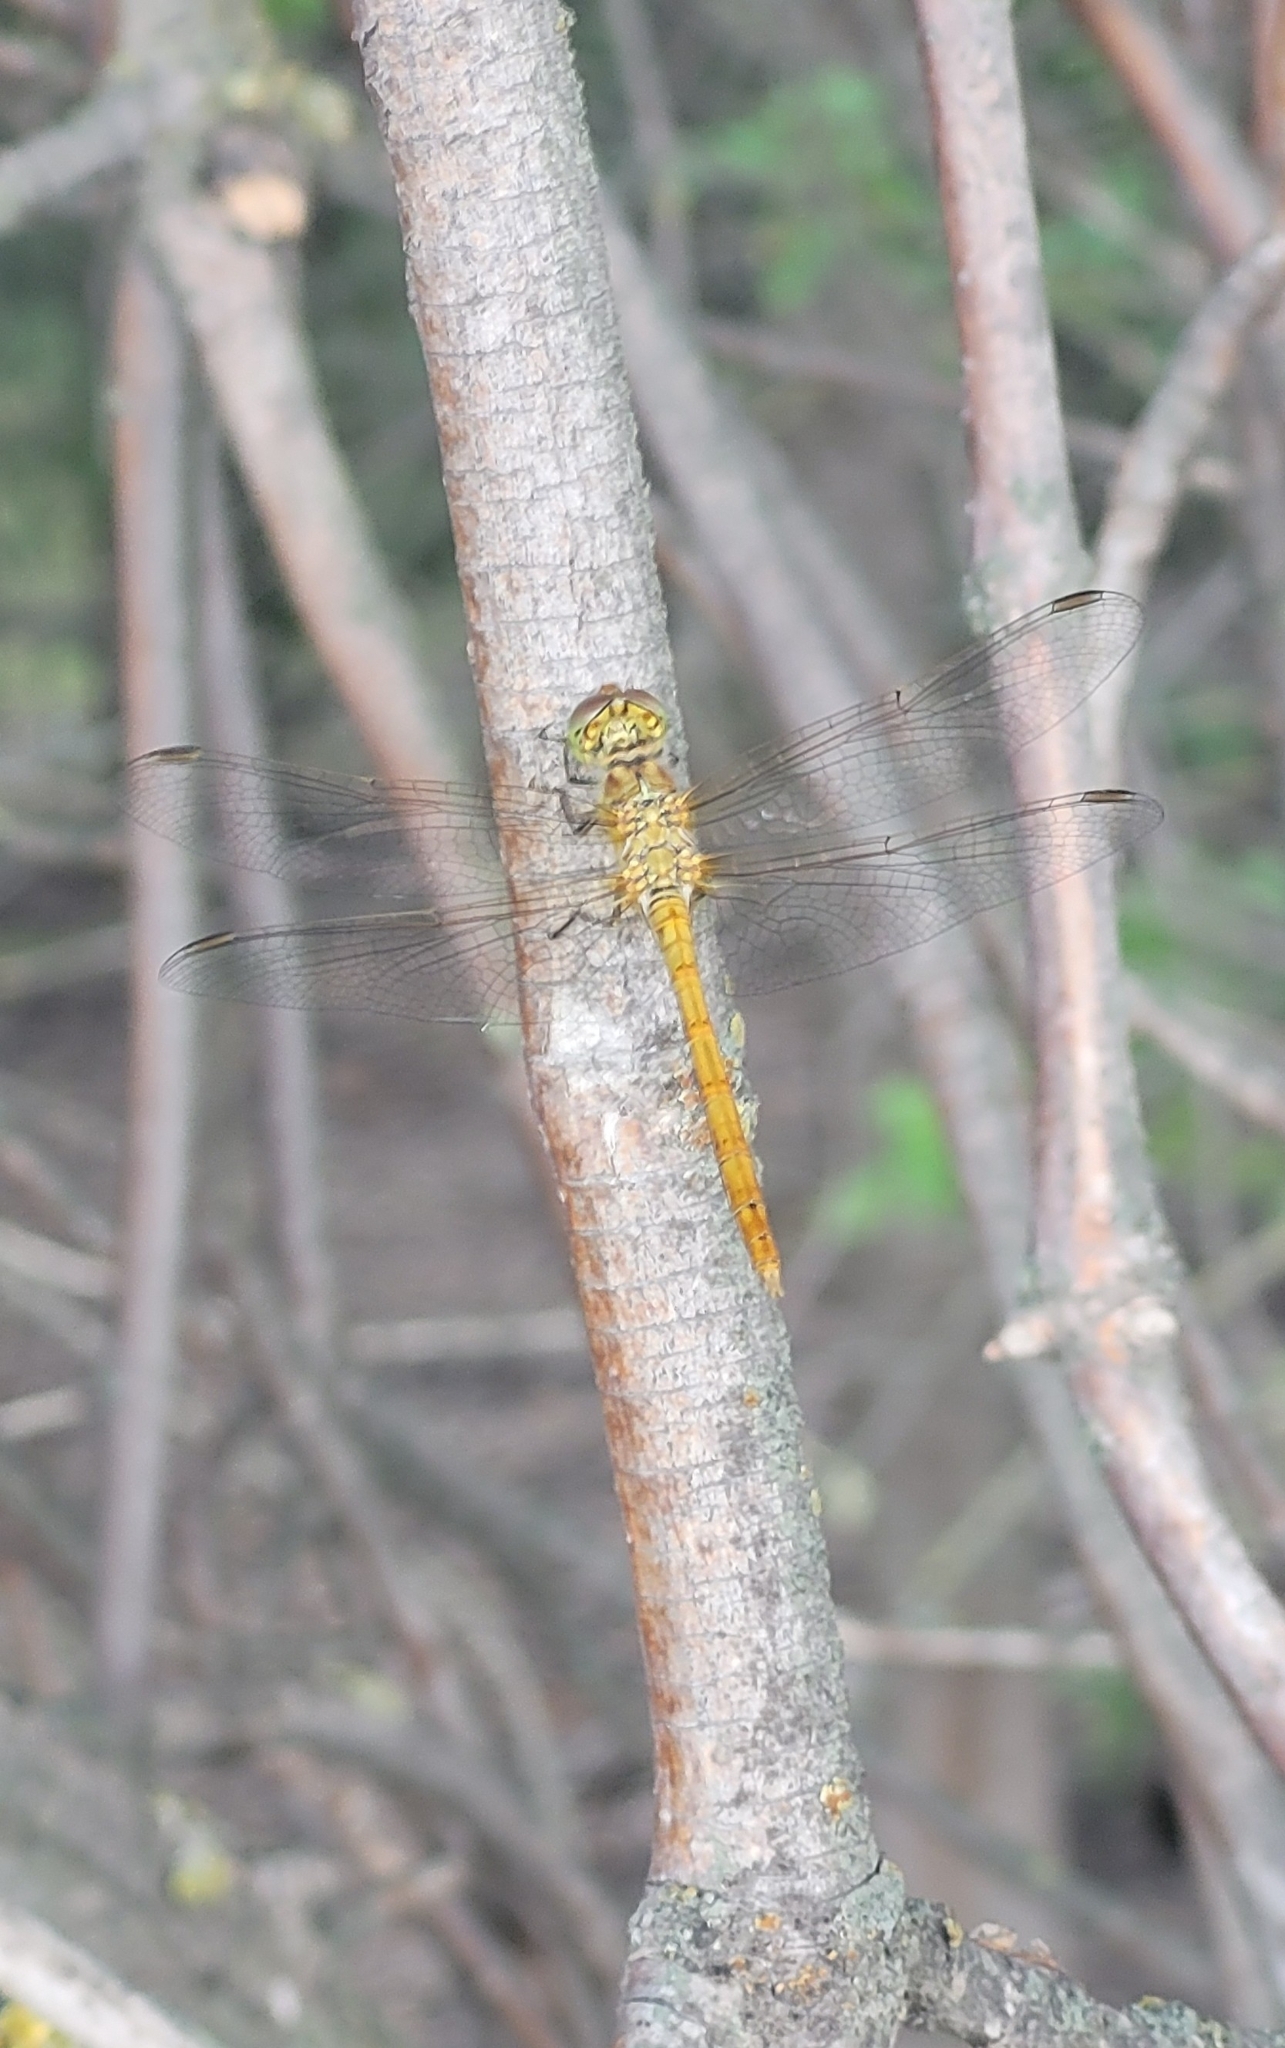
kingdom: Animalia
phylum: Arthropoda
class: Insecta
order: Odonata
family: Libellulidae
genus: Sympetrum
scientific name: Sympetrum meridionale
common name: Southern darter
